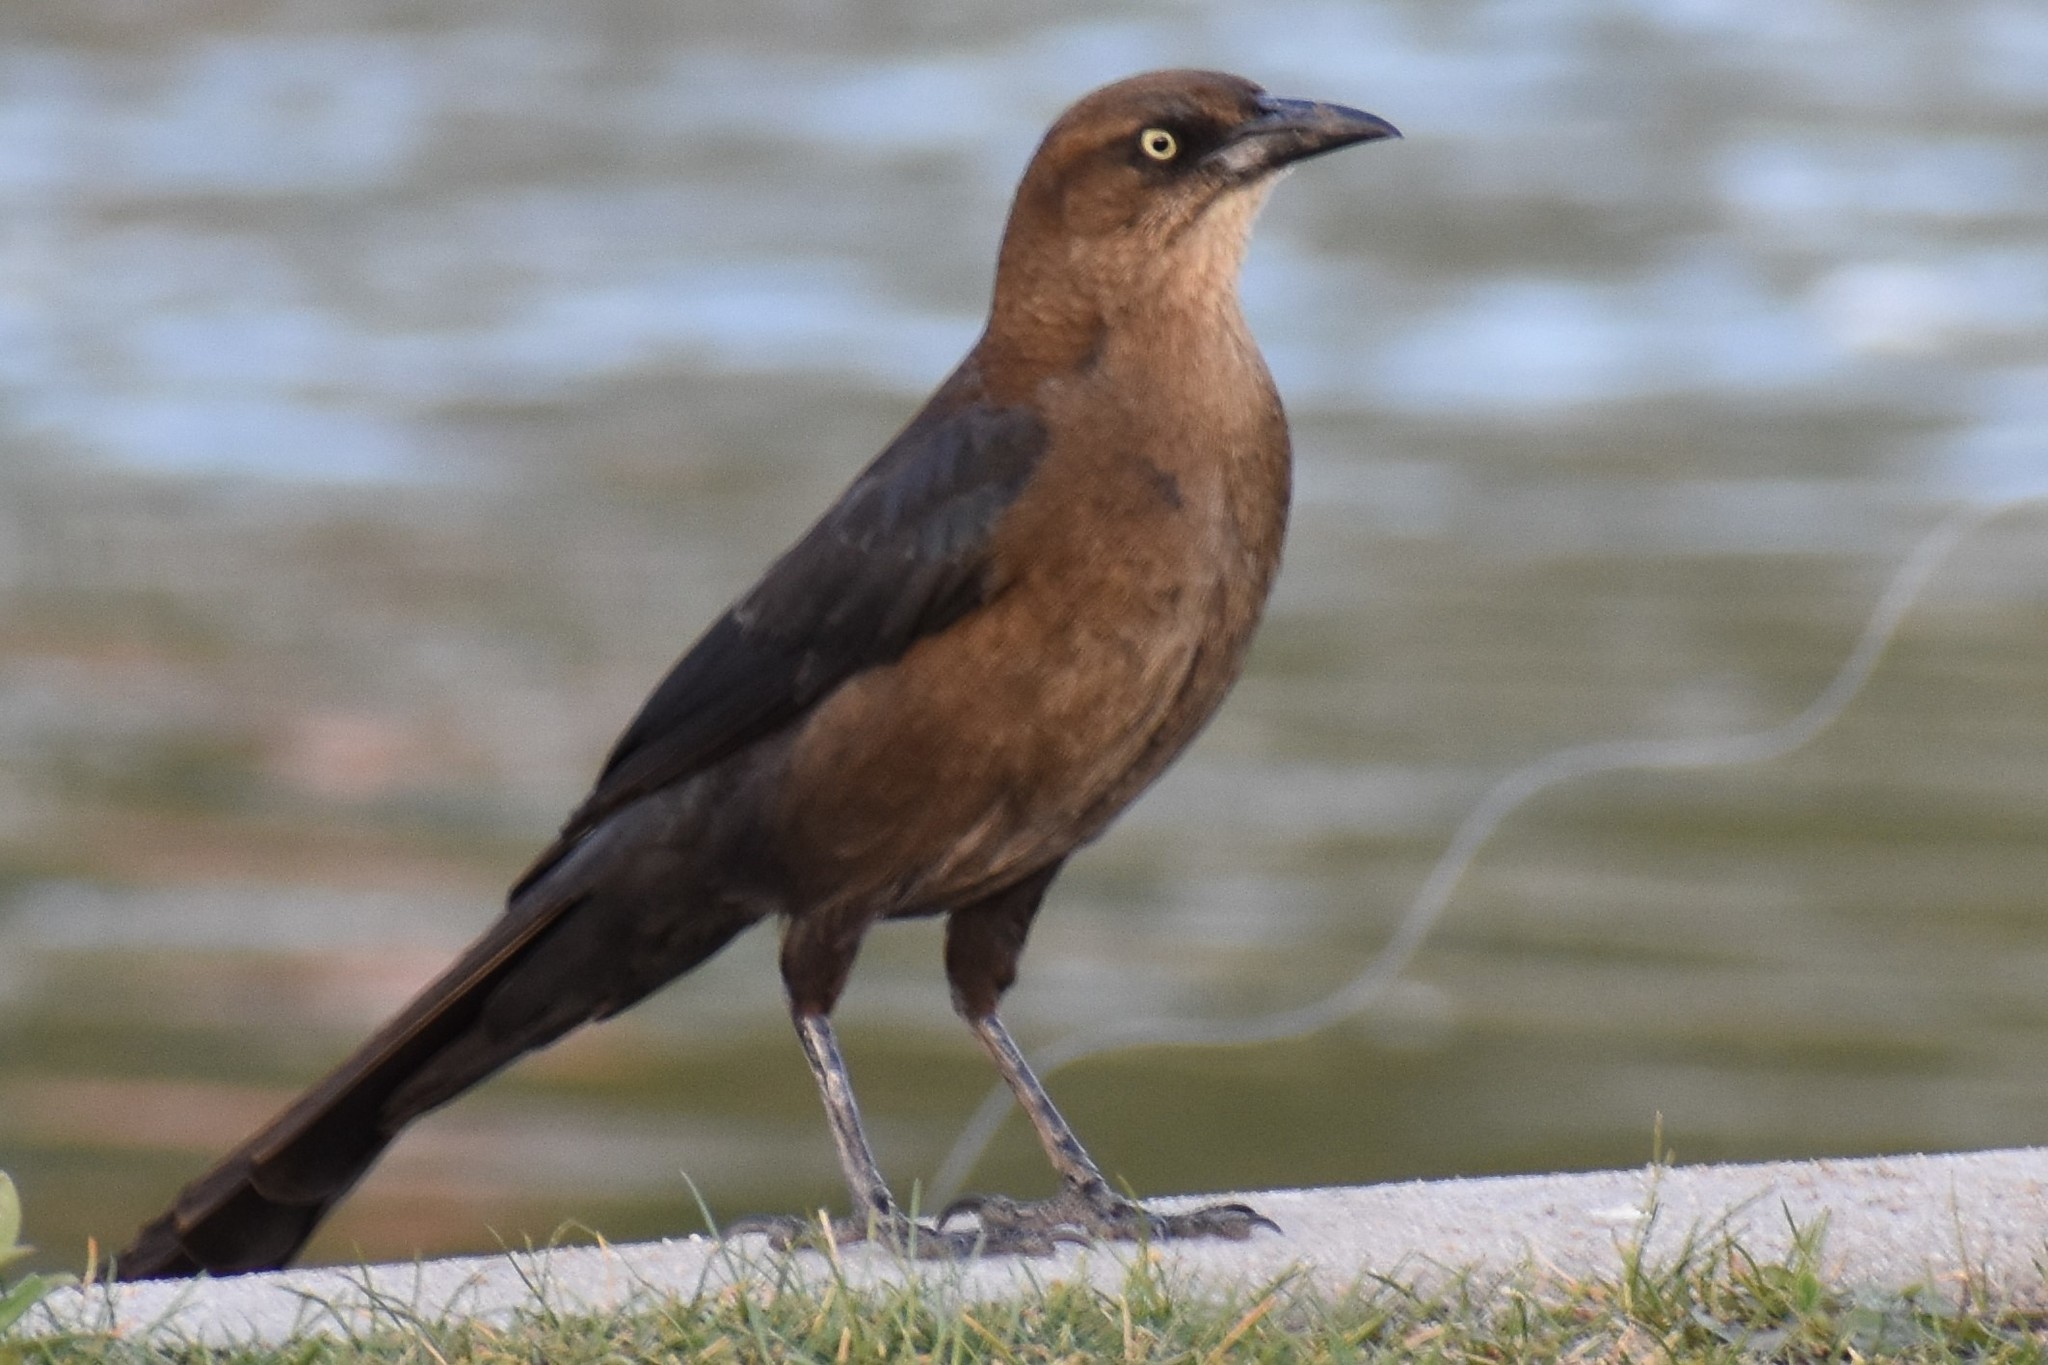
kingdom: Animalia
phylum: Chordata
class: Aves
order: Passeriformes
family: Icteridae
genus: Quiscalus
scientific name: Quiscalus mexicanus
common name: Great-tailed grackle
